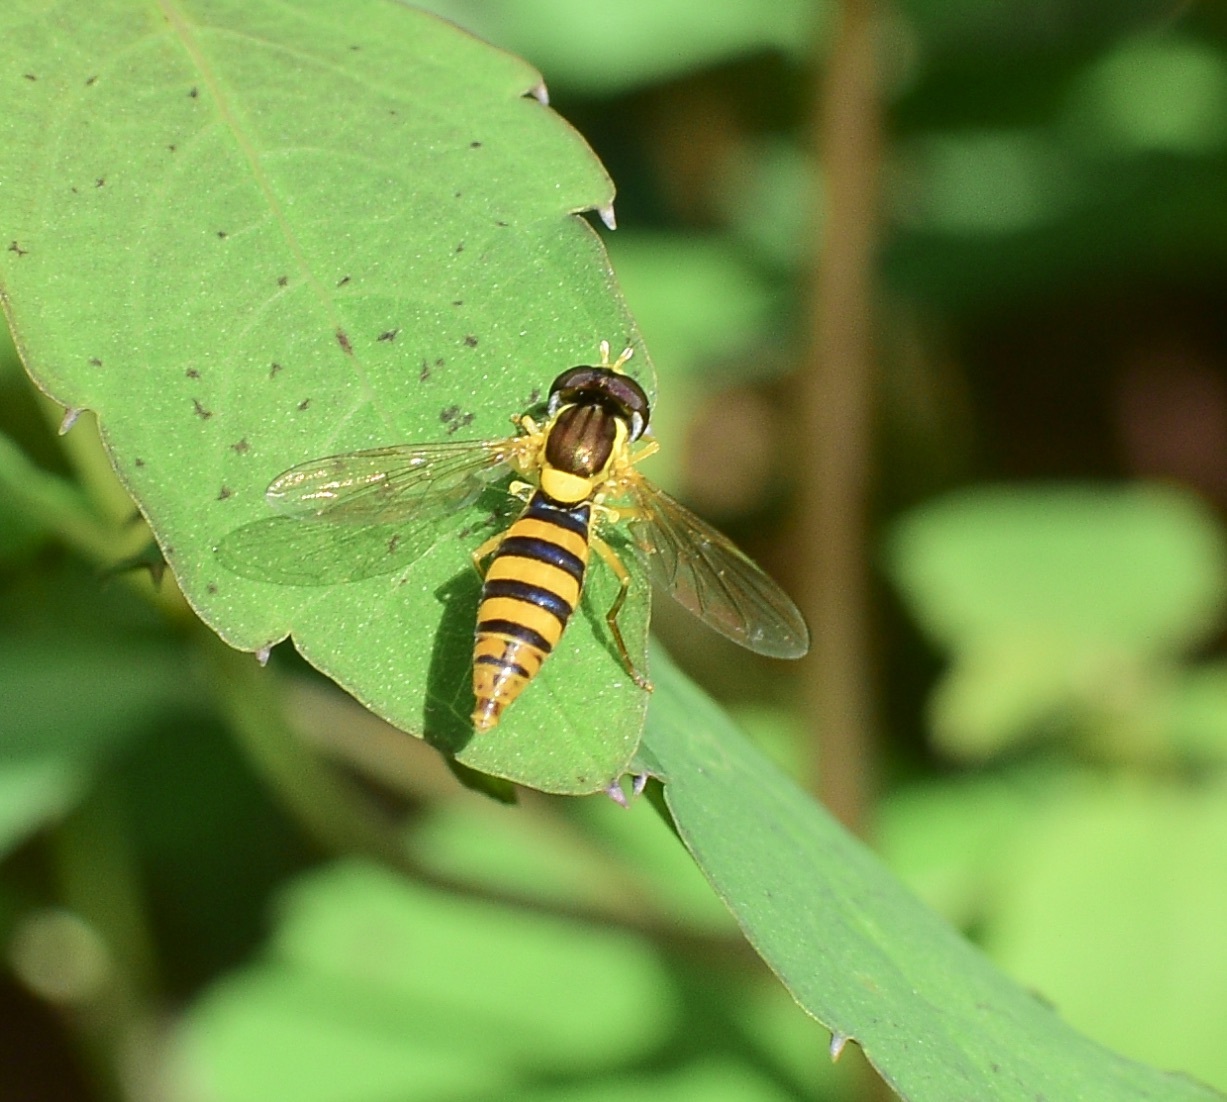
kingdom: Animalia
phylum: Arthropoda
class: Insecta
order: Diptera
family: Syrphidae
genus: Sphaerophoria
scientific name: Sphaerophoria
